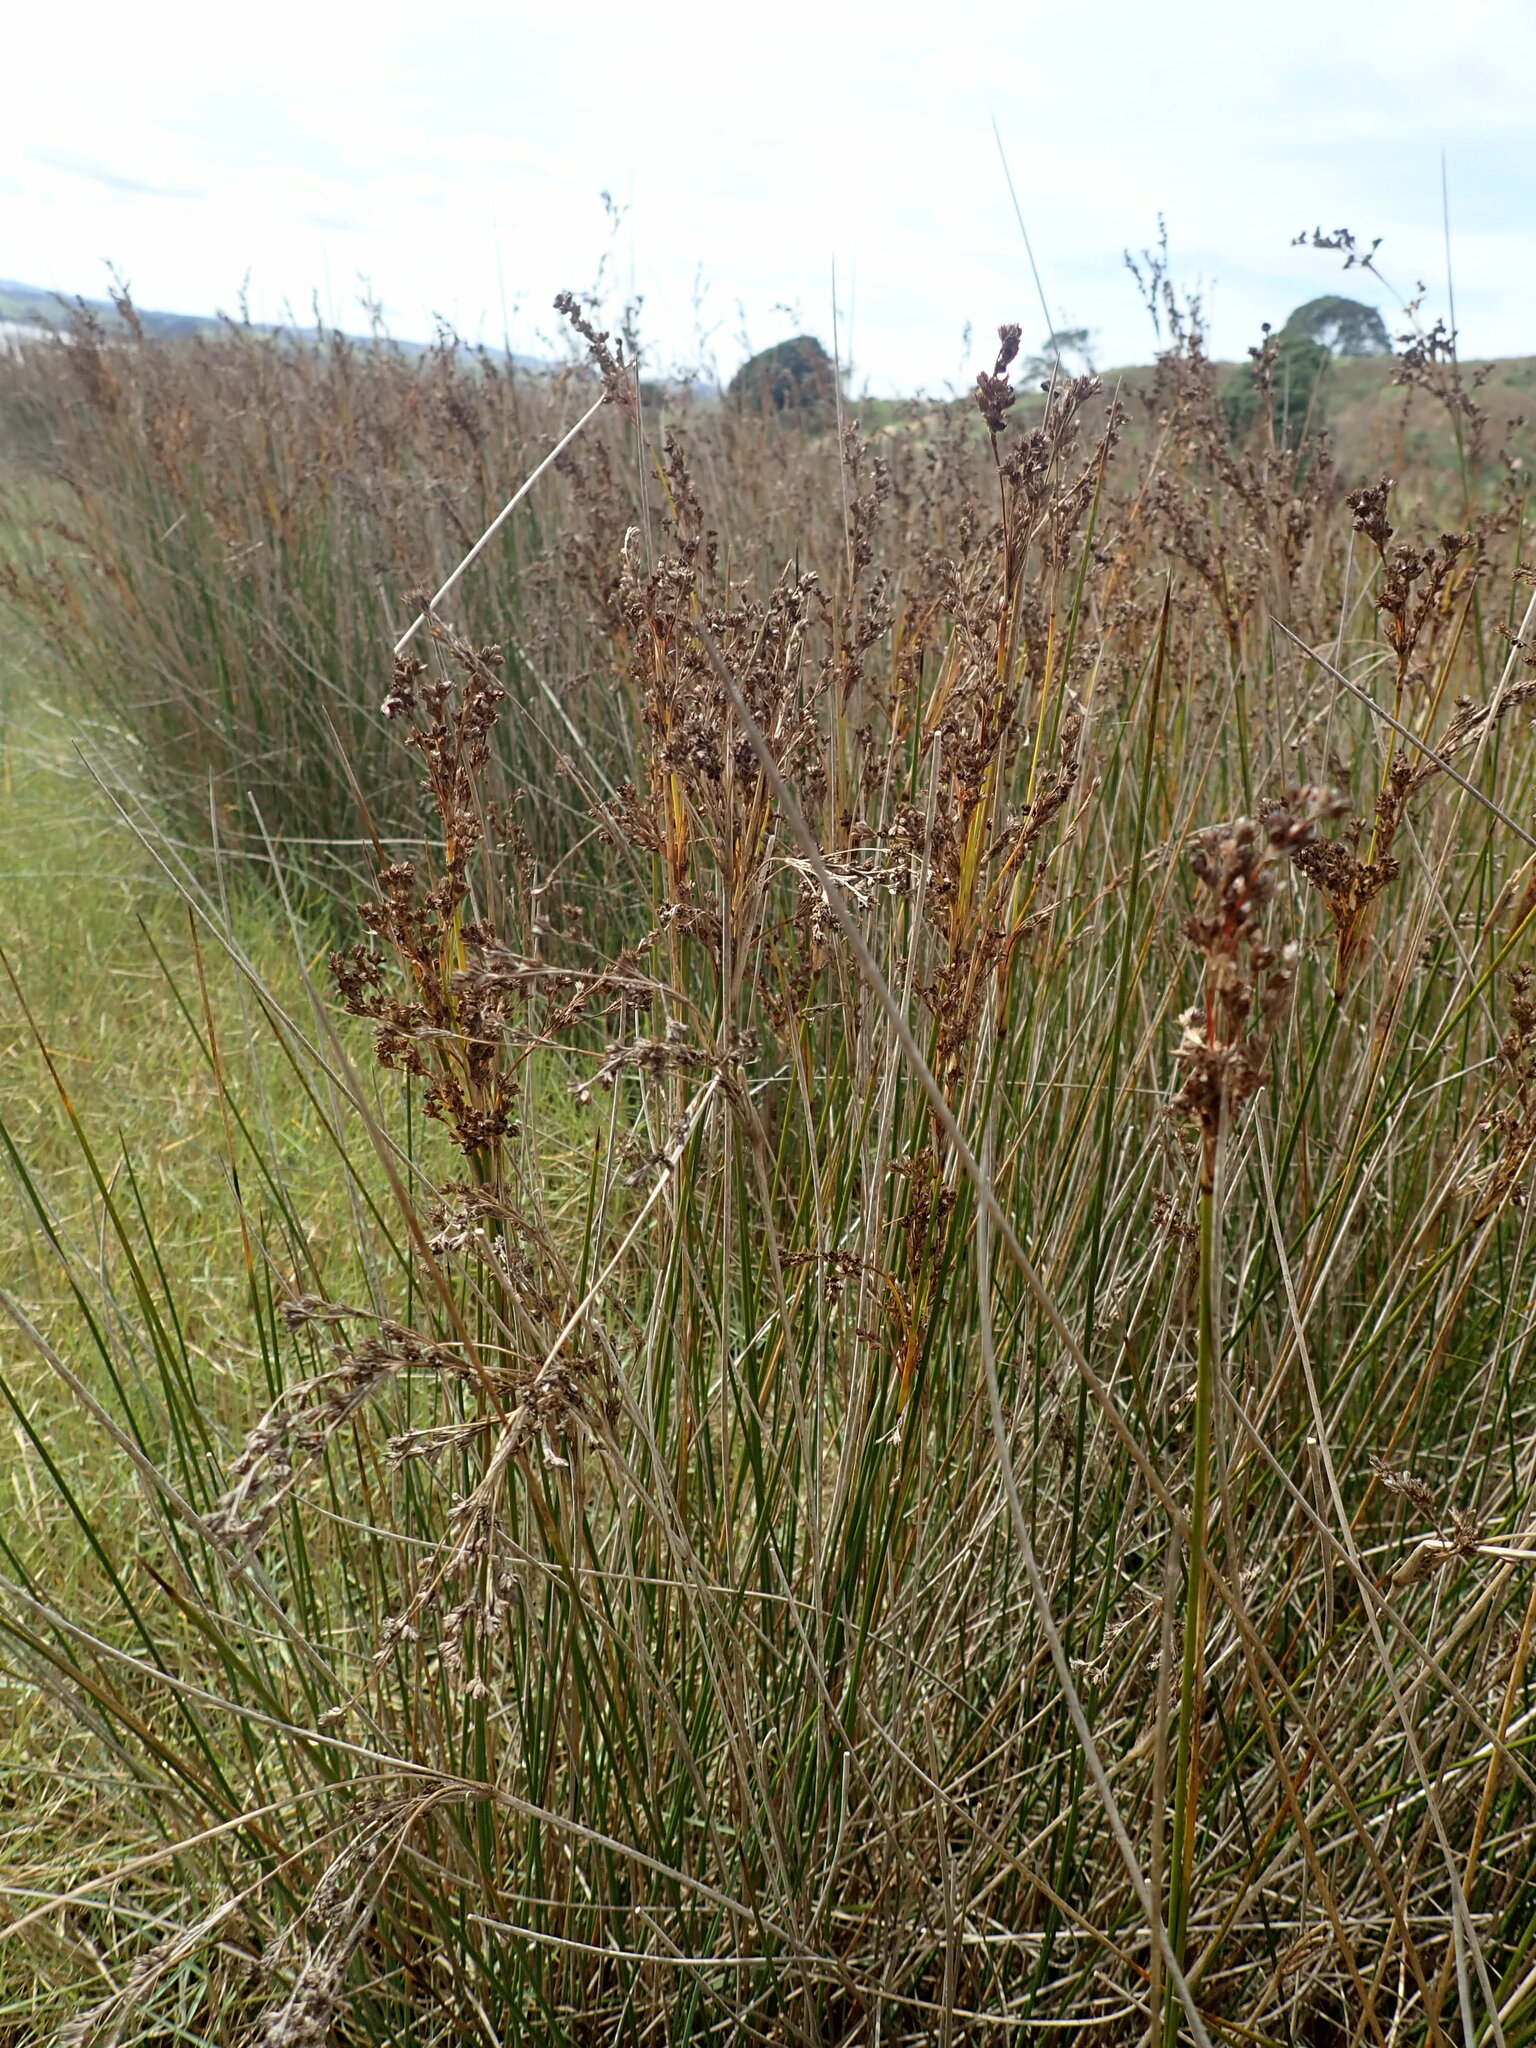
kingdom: Plantae
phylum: Tracheophyta
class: Liliopsida
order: Poales
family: Juncaceae
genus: Juncus
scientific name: Juncus kraussii
